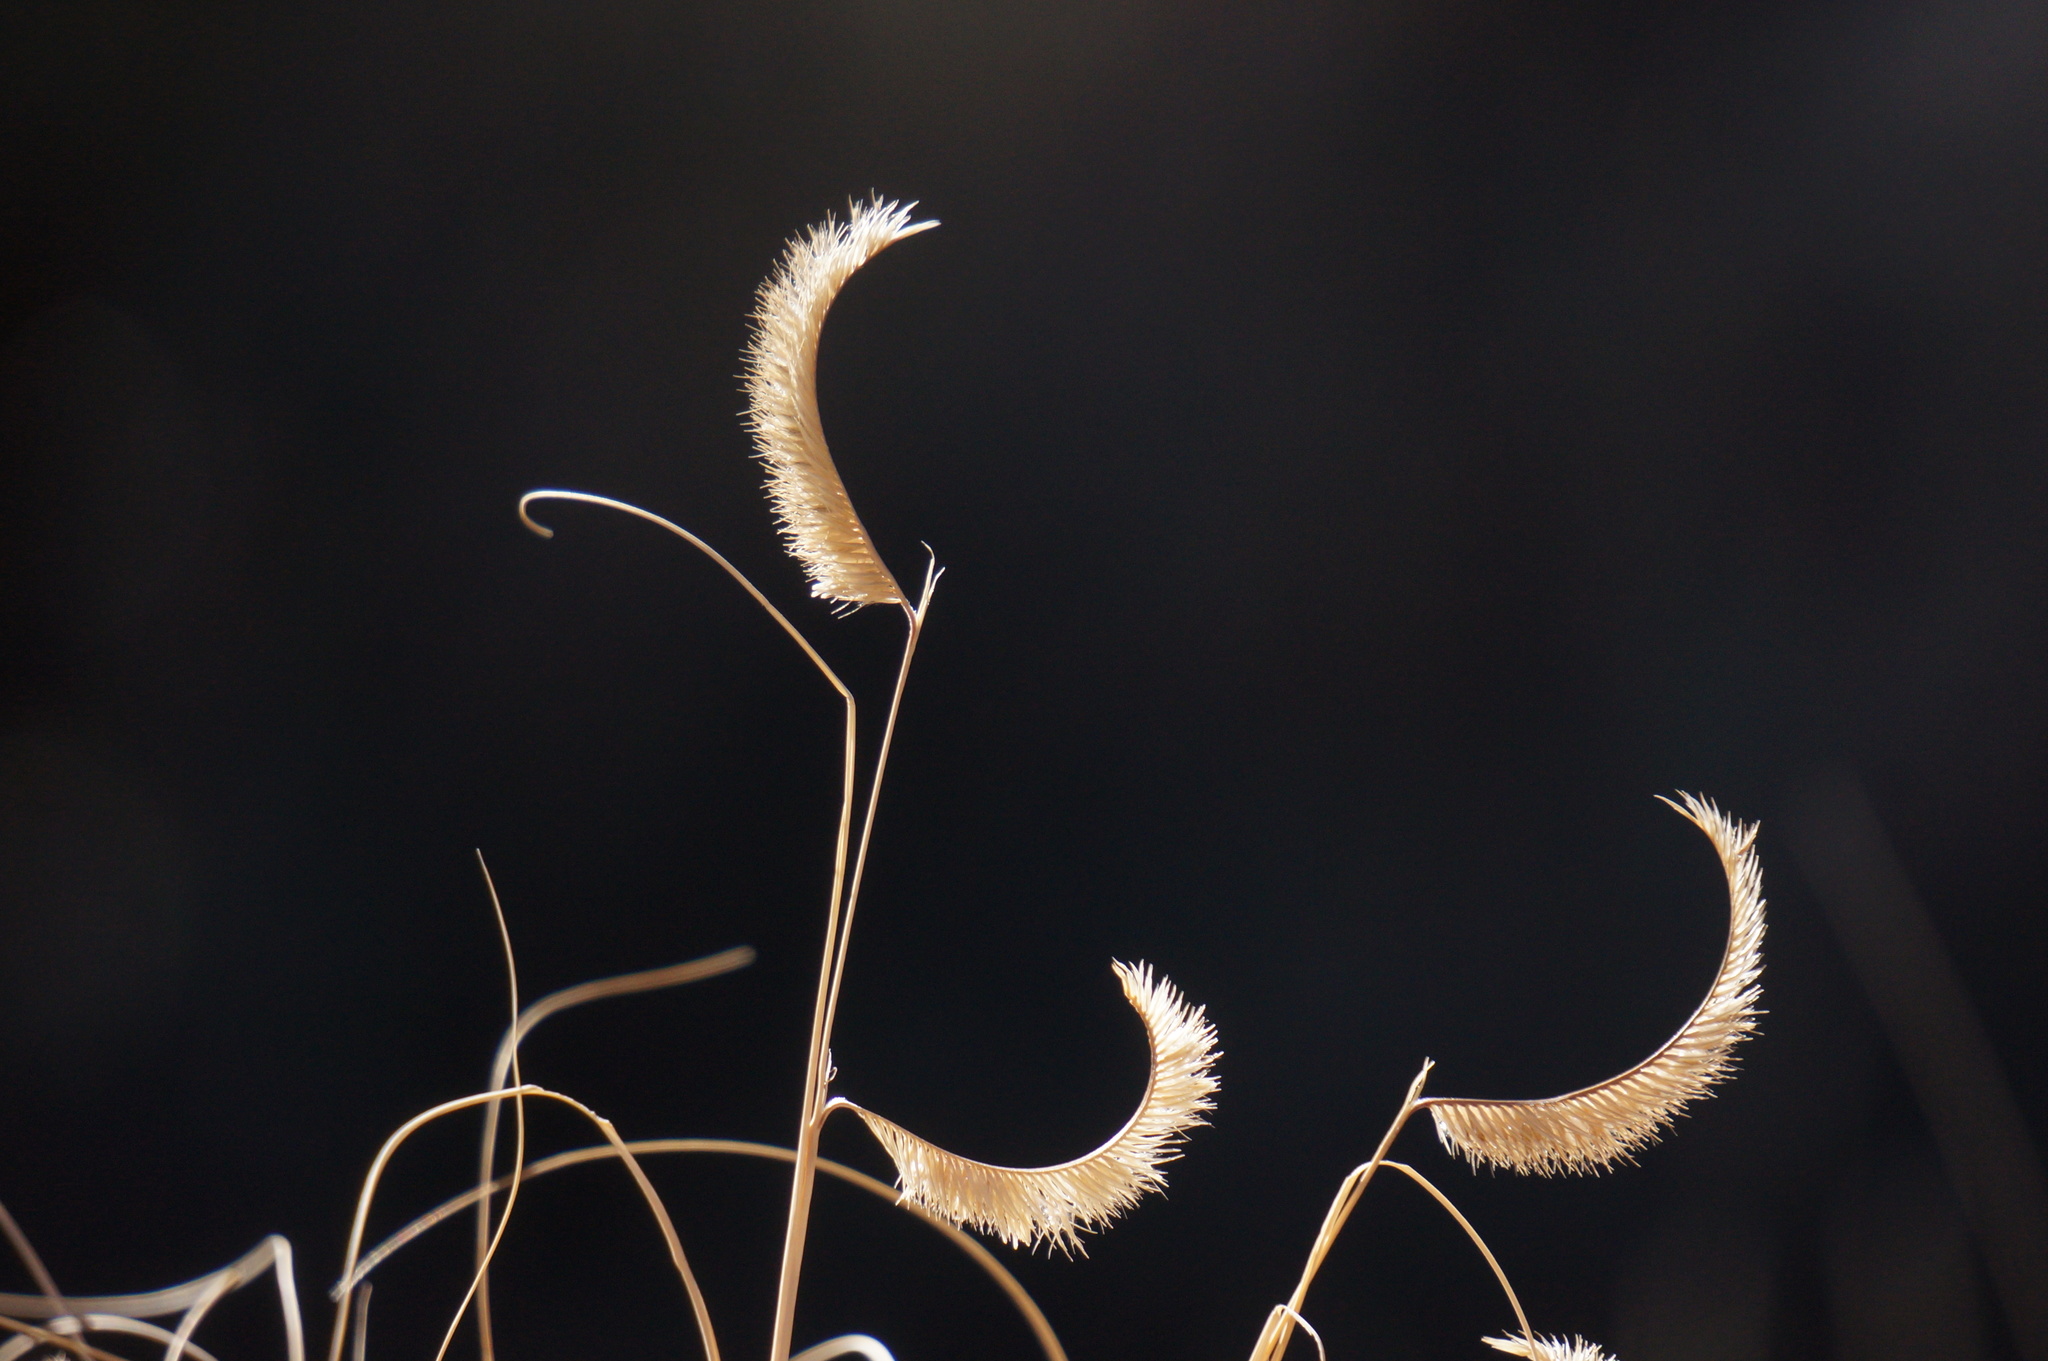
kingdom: Plantae
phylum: Tracheophyta
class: Liliopsida
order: Poales
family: Poaceae
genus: Bouteloua
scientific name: Bouteloua gracilis
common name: Blue grama
